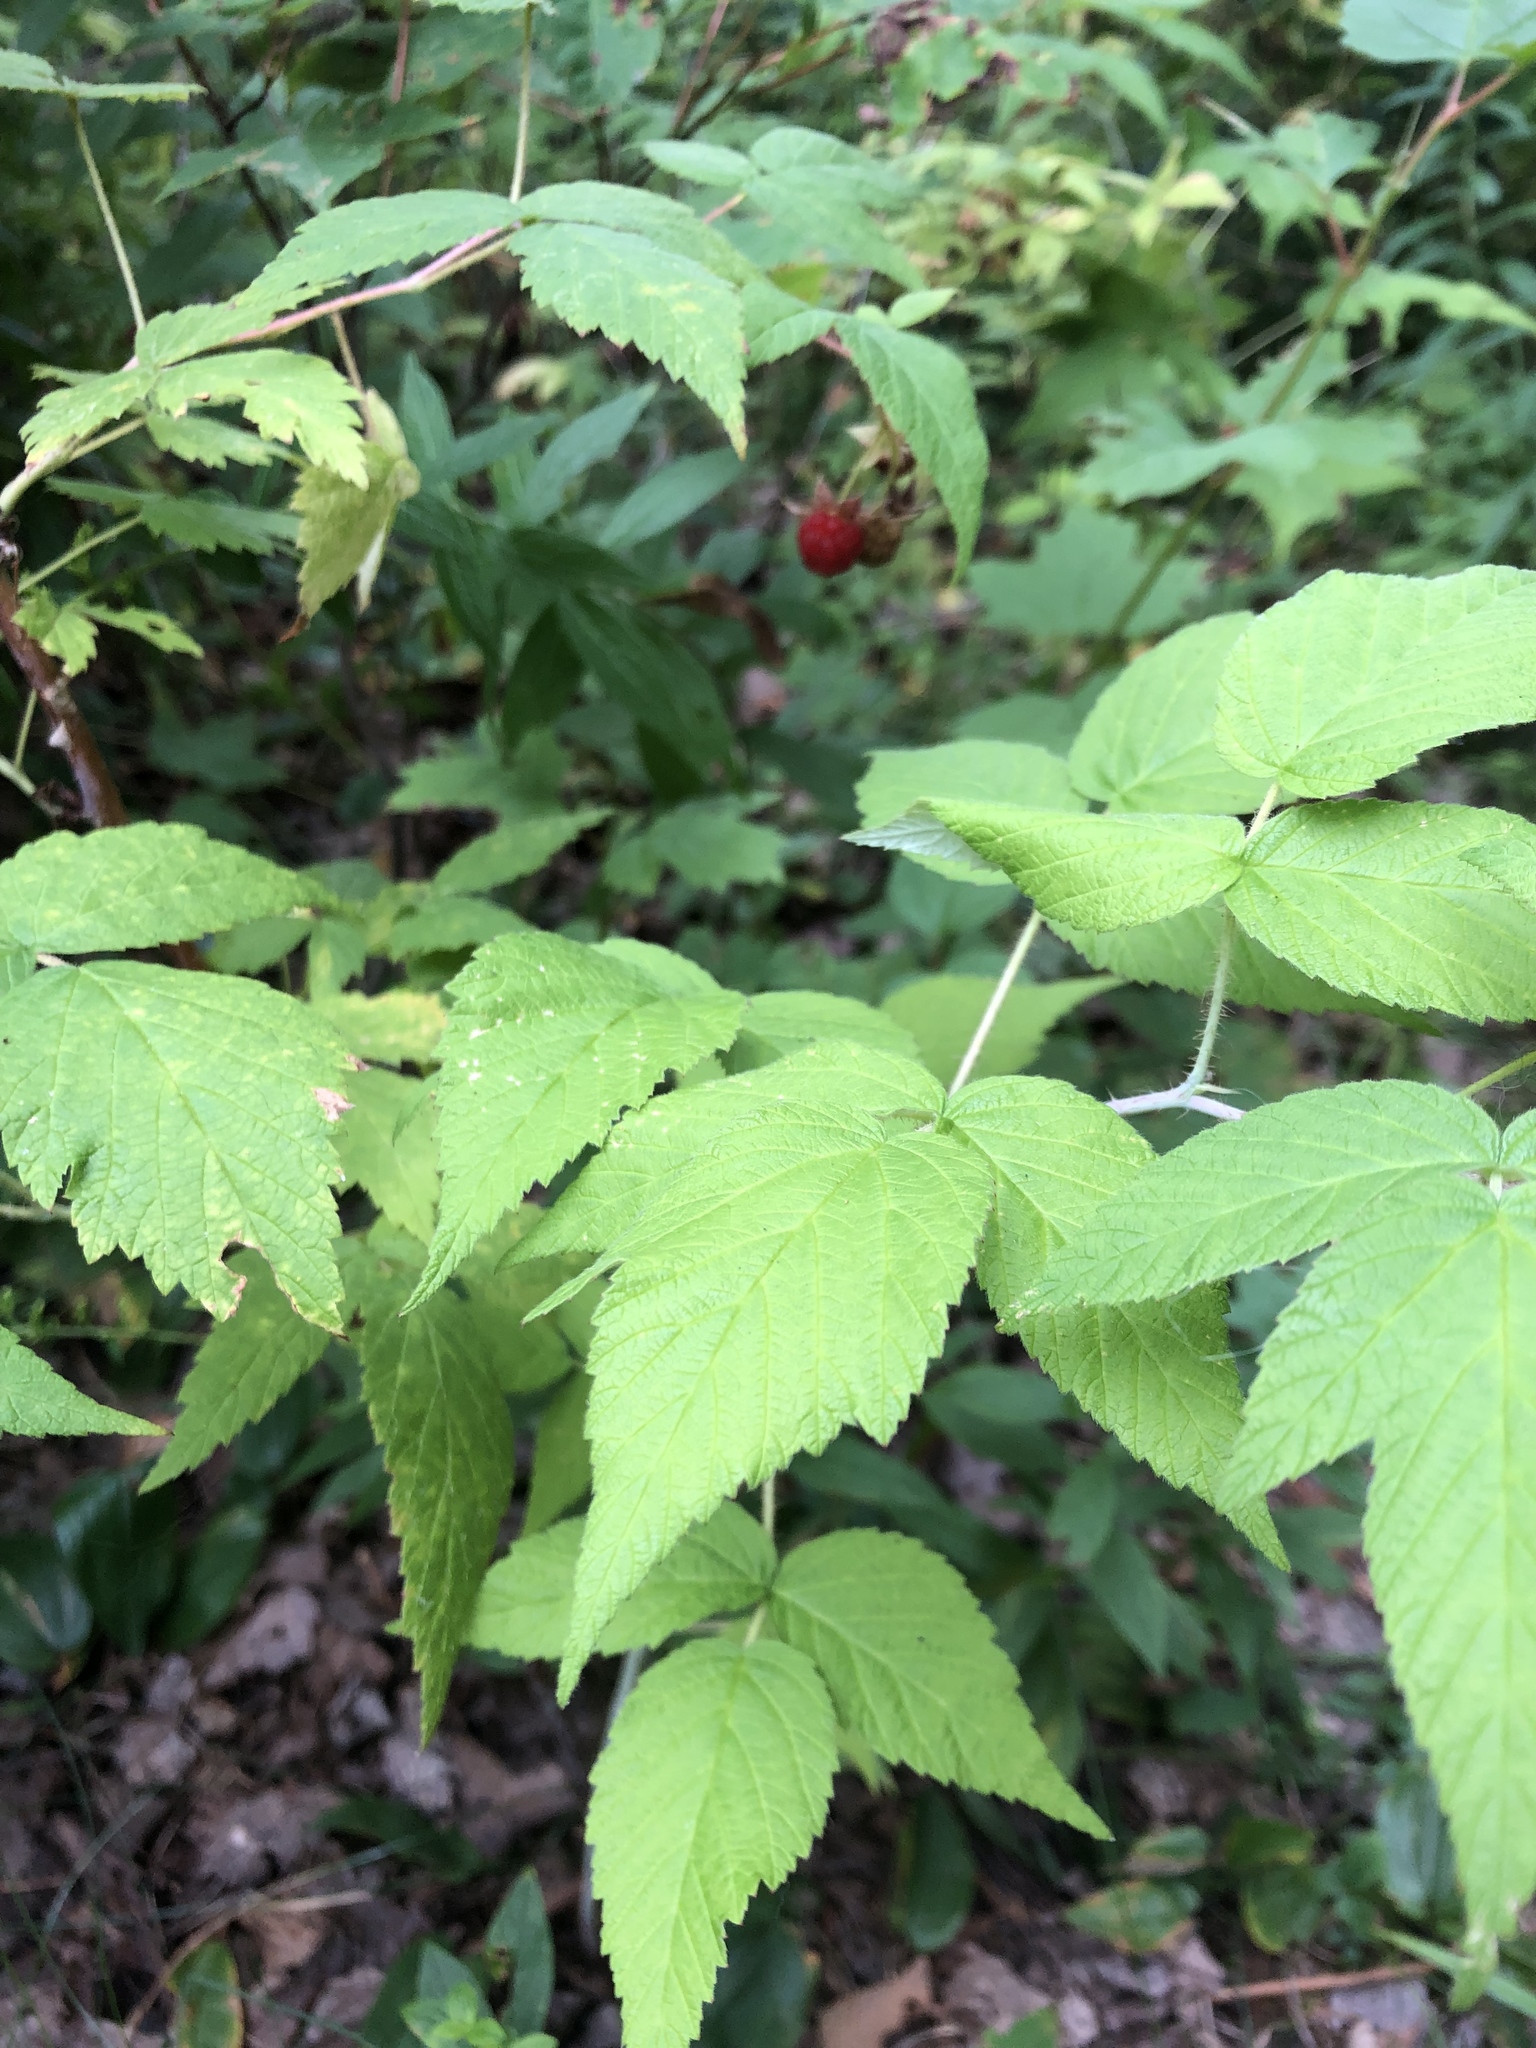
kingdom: Plantae
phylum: Tracheophyta
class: Magnoliopsida
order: Rosales
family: Rosaceae
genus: Rubus
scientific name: Rubus idaeus
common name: Raspberry
